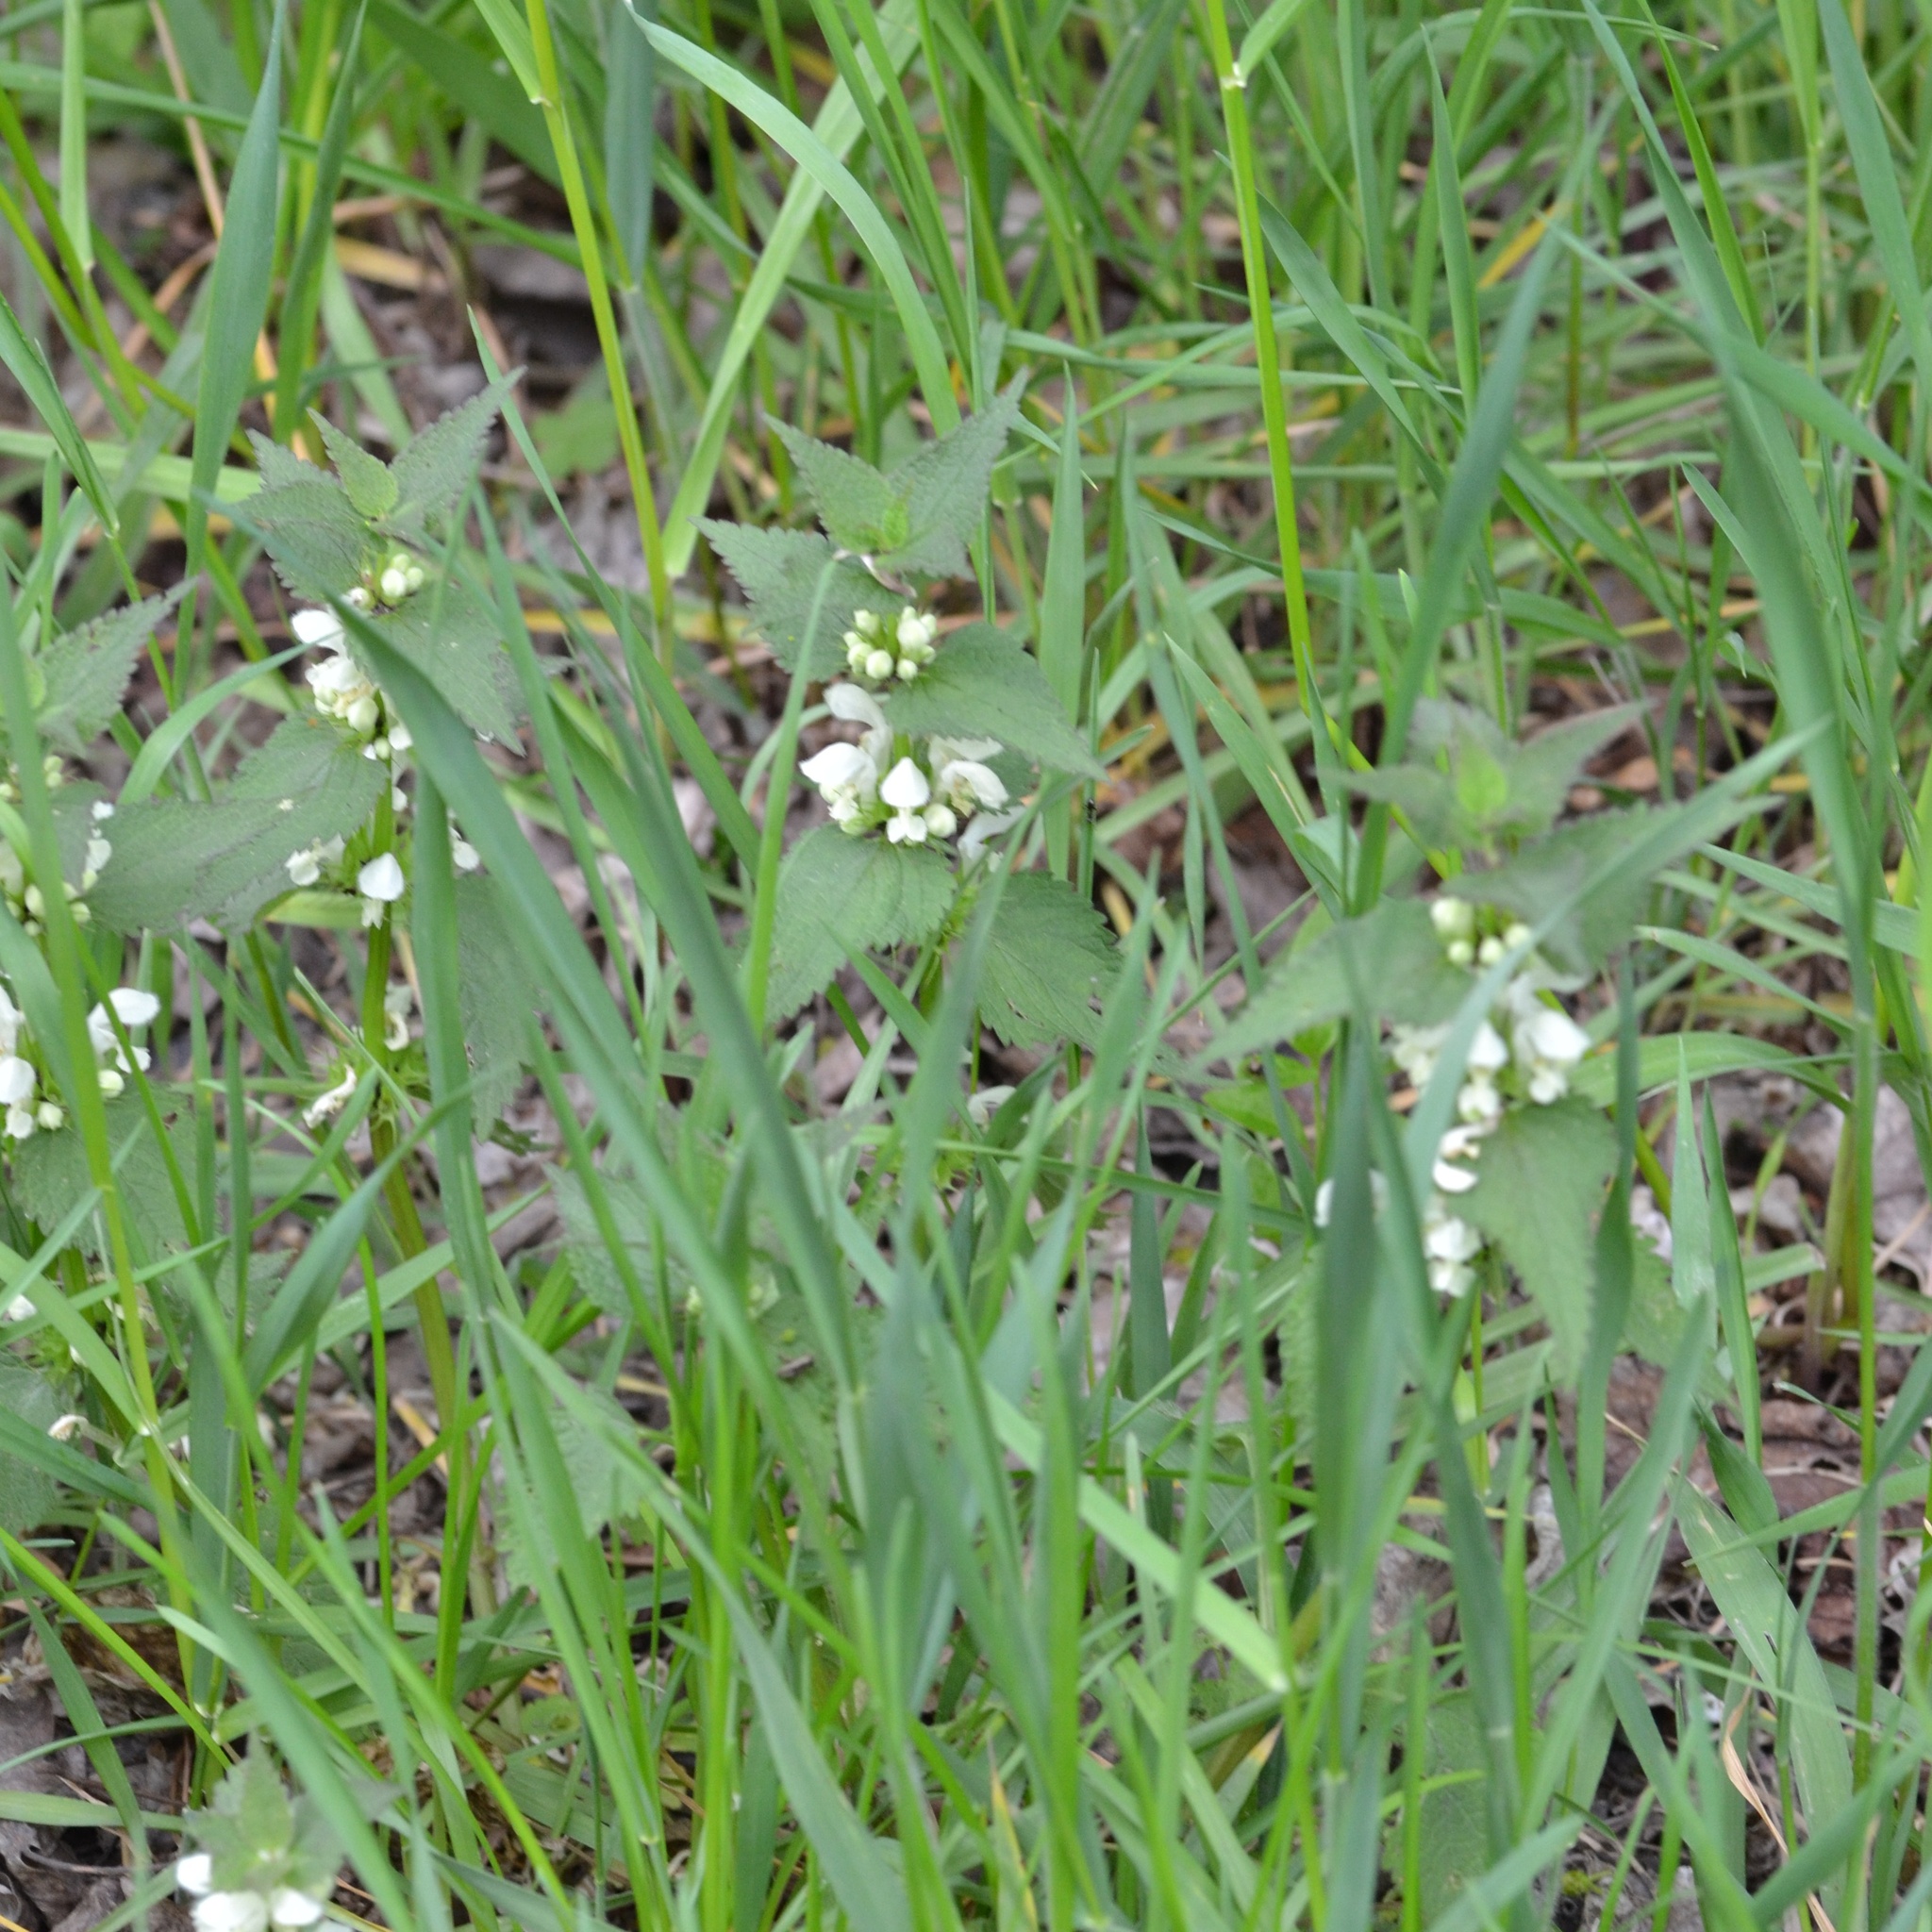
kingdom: Plantae
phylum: Tracheophyta
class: Magnoliopsida
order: Lamiales
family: Lamiaceae
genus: Lamium
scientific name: Lamium album
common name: White dead-nettle
